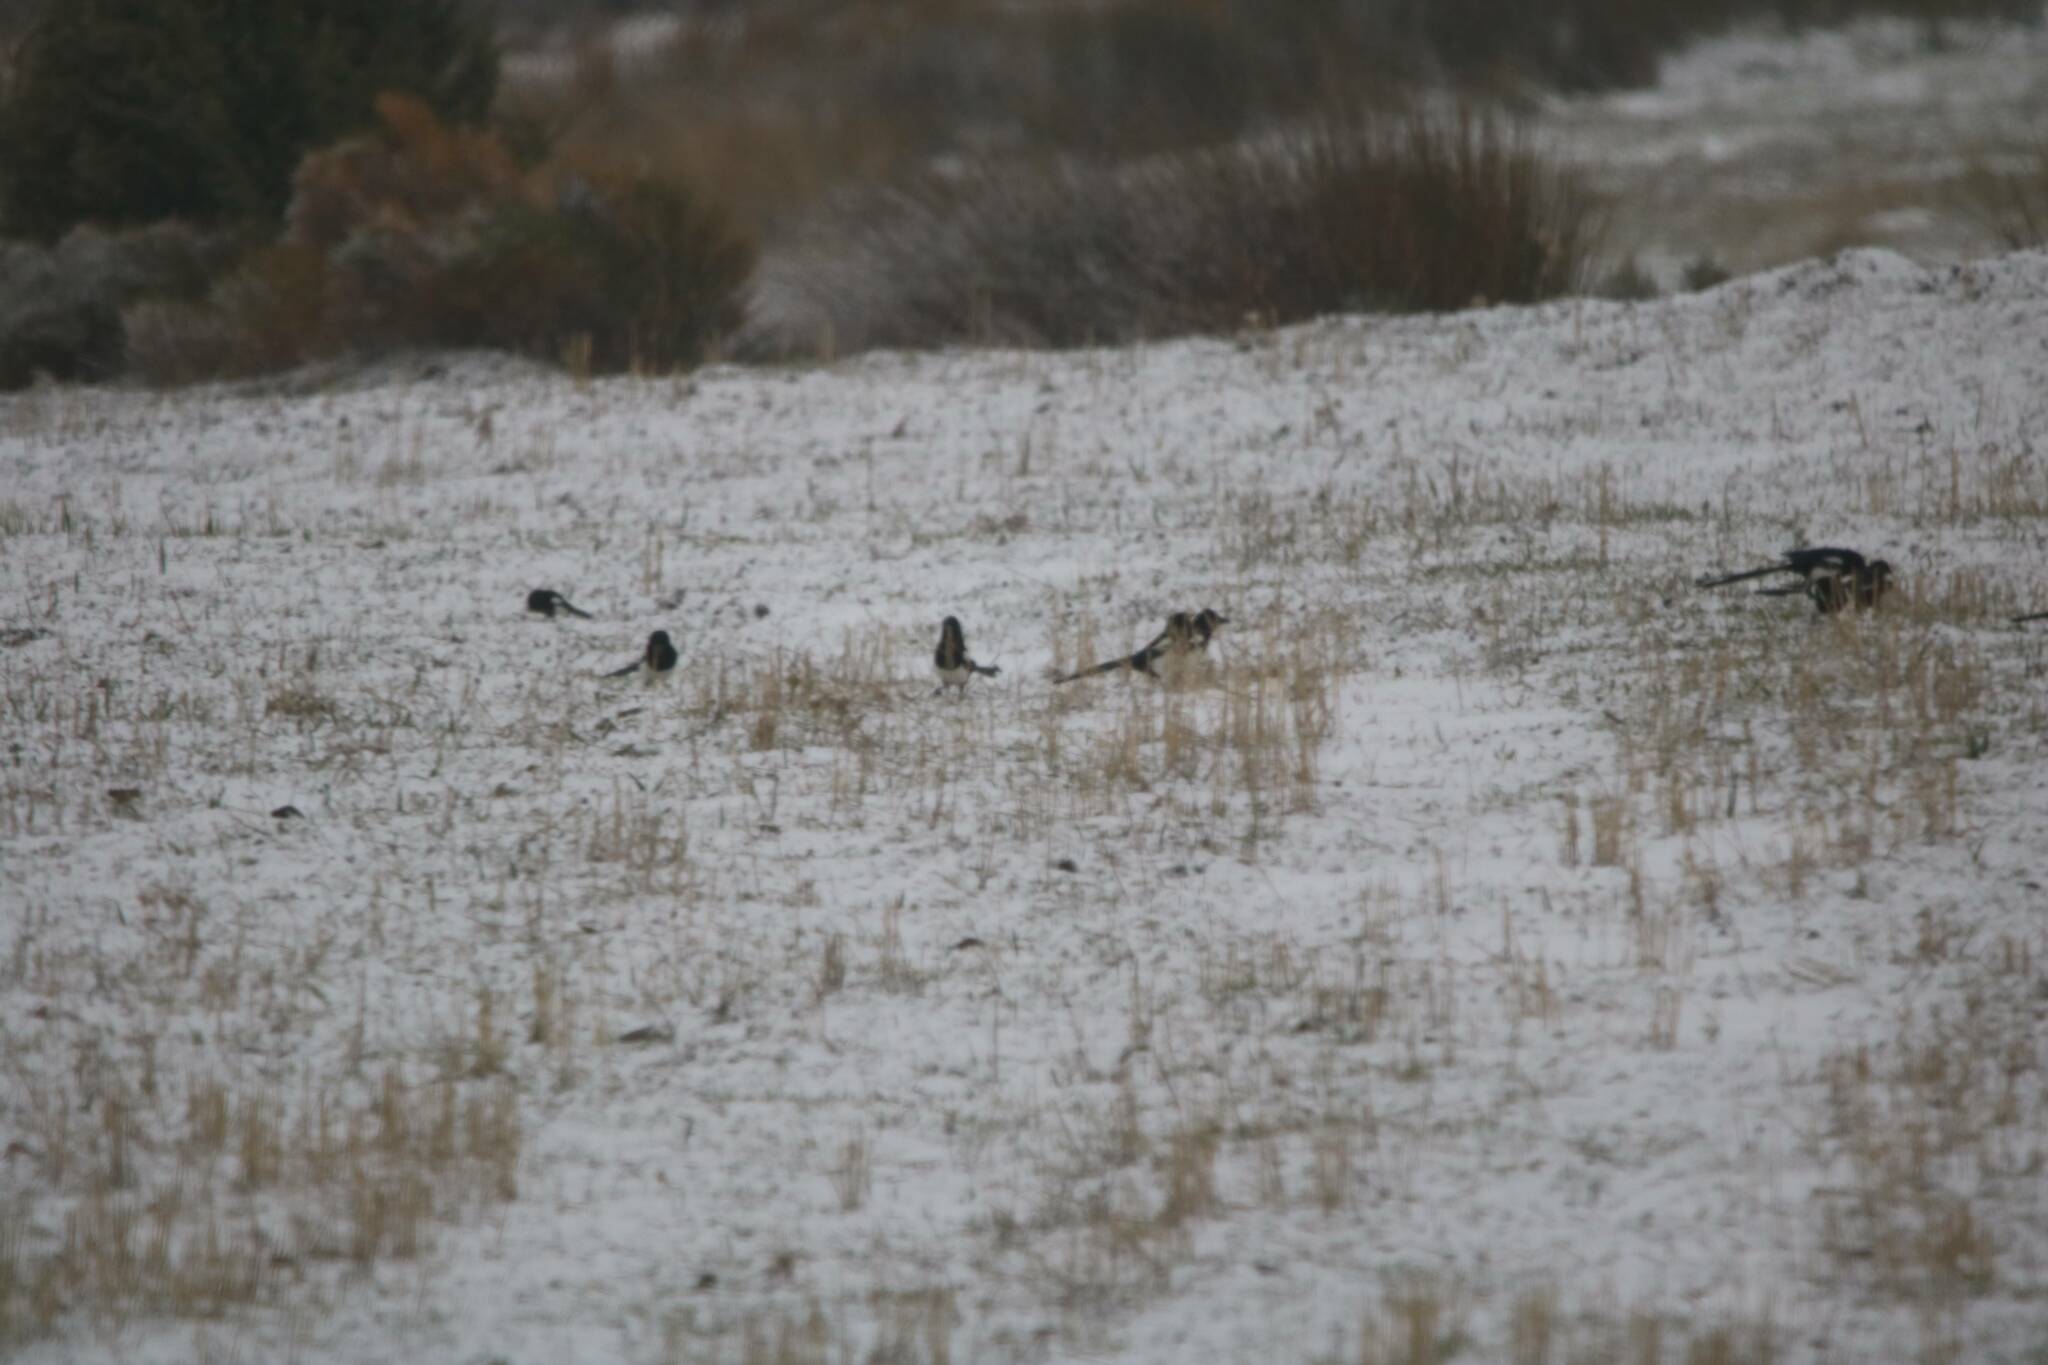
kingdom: Animalia
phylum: Chordata
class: Aves
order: Passeriformes
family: Corvidae
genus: Pica
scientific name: Pica mauritanica
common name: Maghreb magpie
